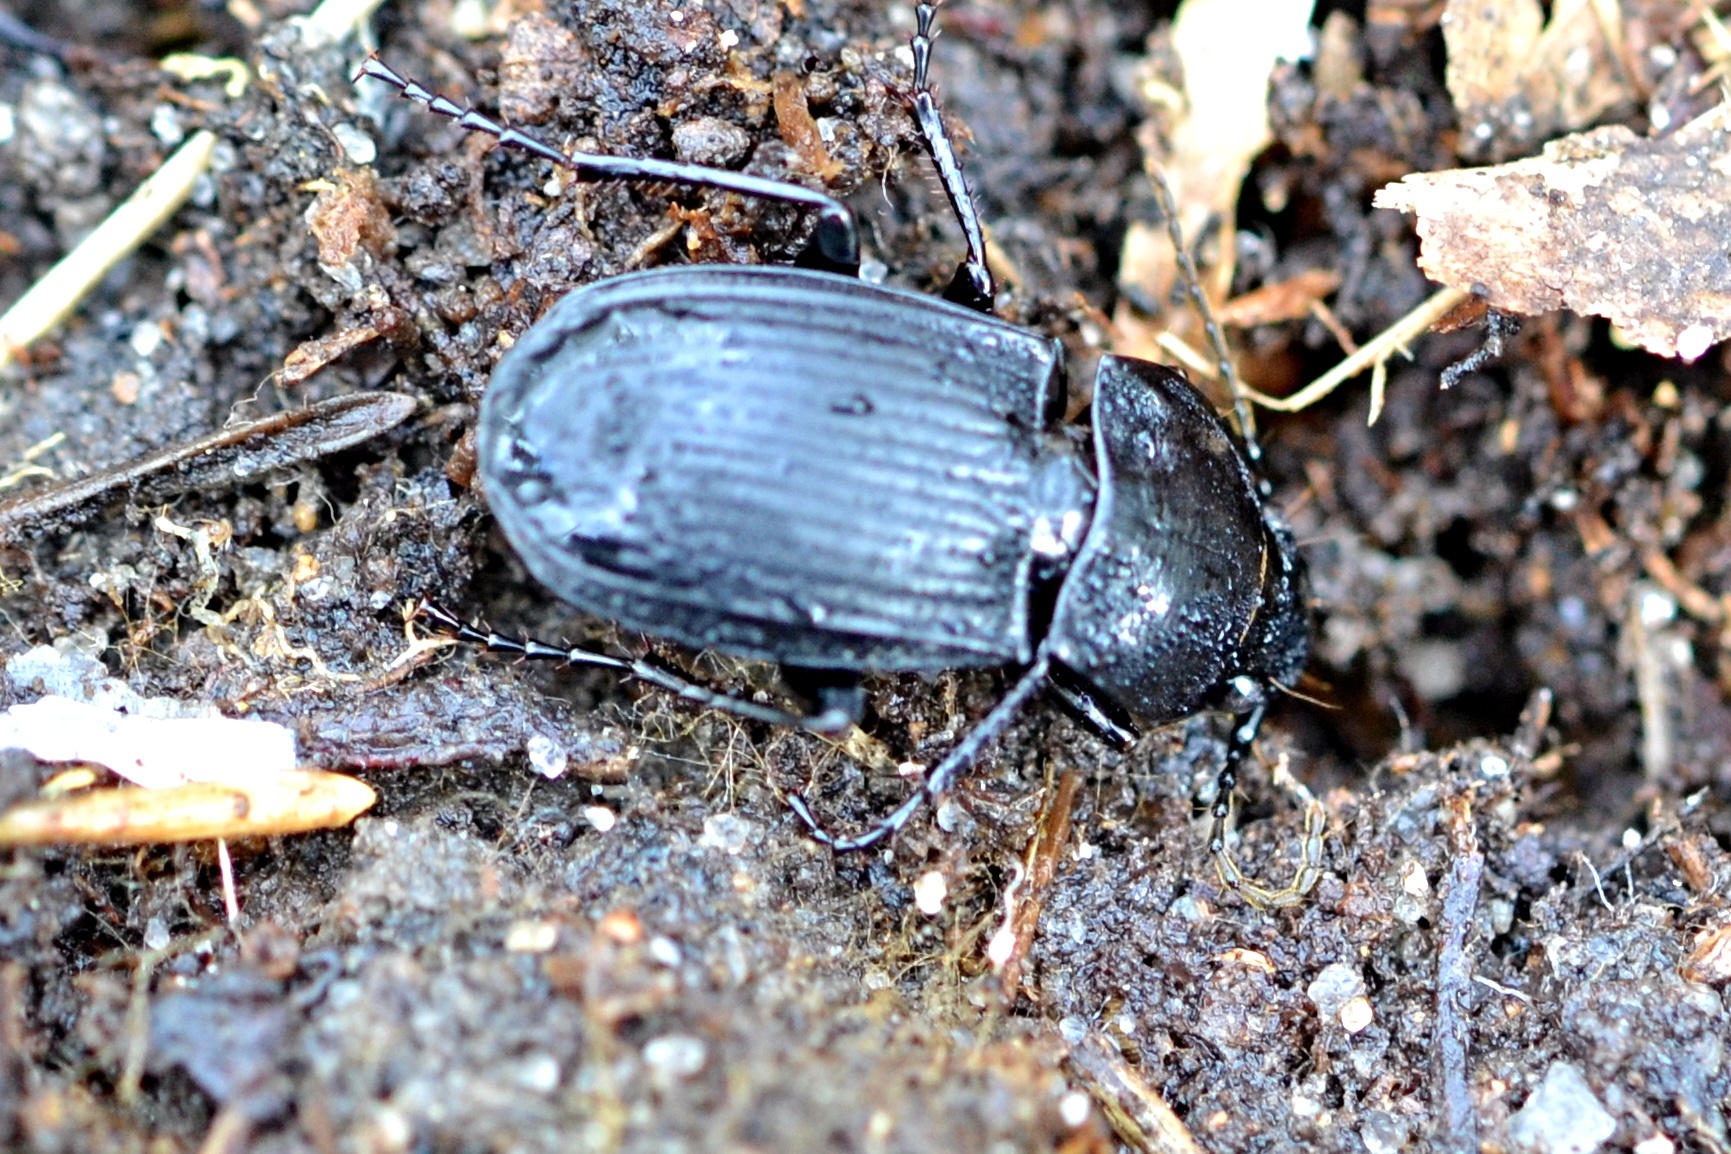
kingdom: Animalia
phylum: Arthropoda
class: Insecta
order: Coleoptera
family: Carabidae
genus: Abax
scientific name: Abax parallelepipedus
